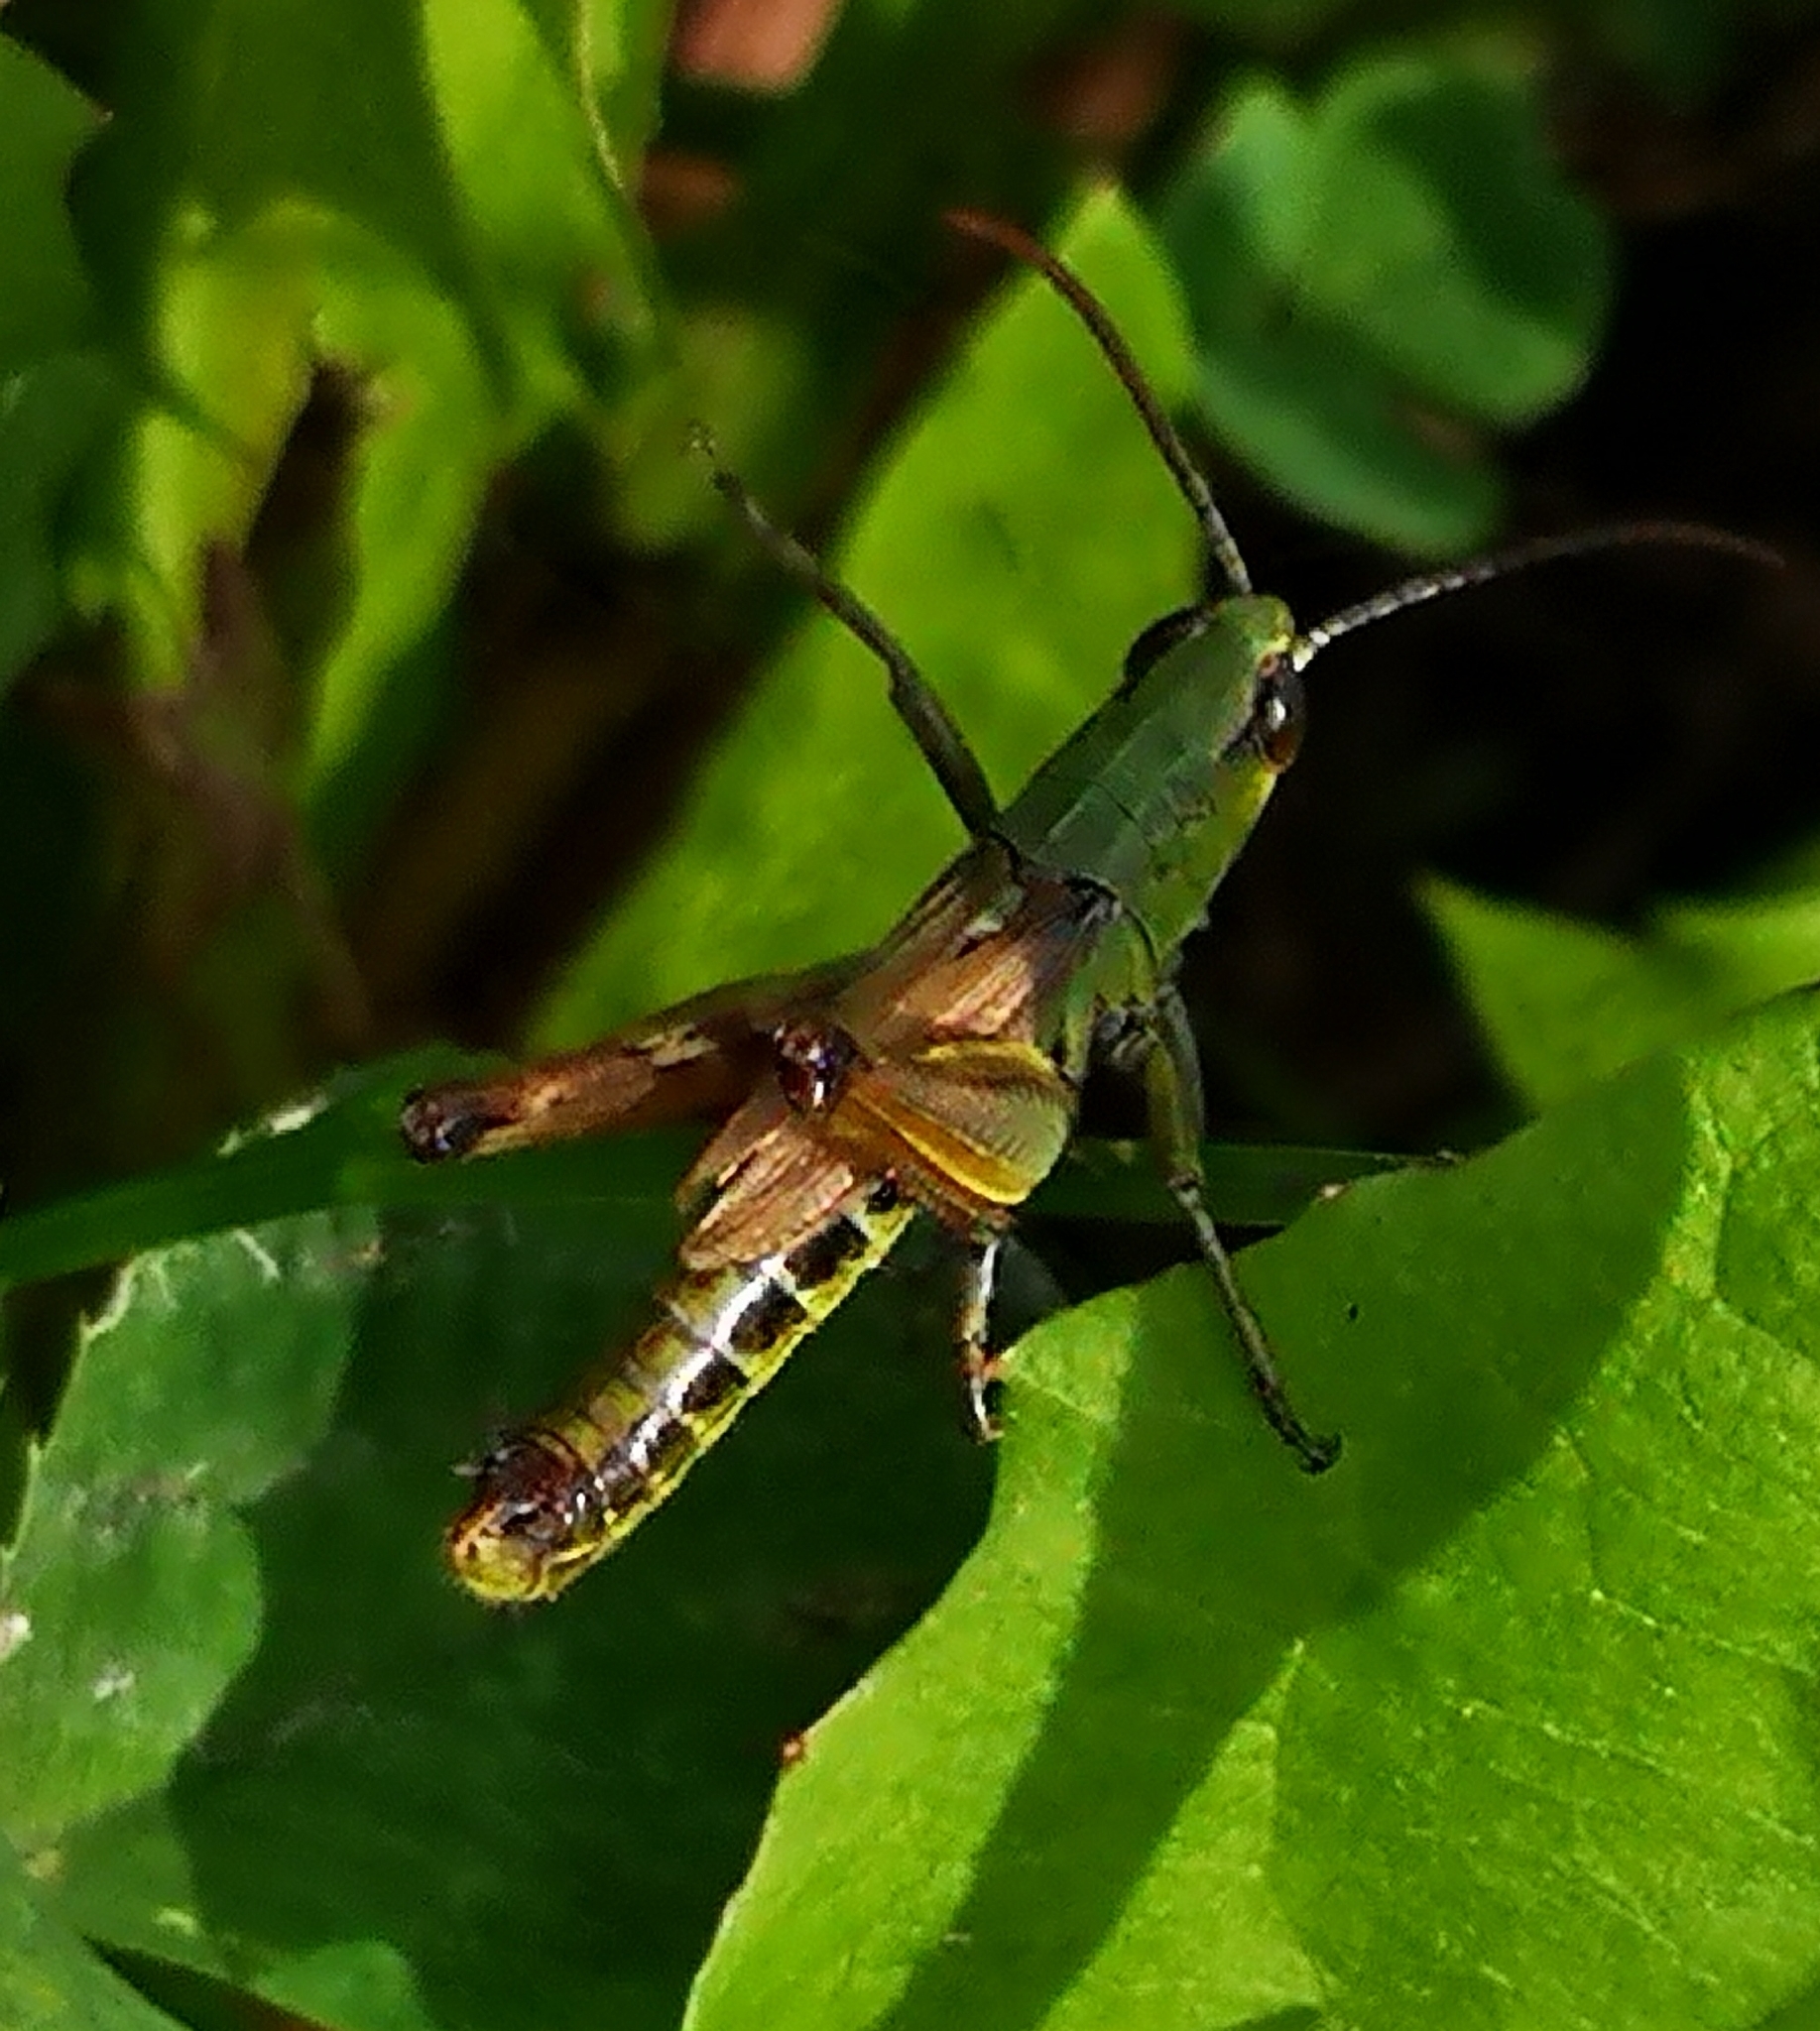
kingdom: Animalia
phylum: Arthropoda
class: Insecta
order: Orthoptera
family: Acrididae
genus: Pseudochorthippus
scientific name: Pseudochorthippus parallelus
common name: Meadow grasshopper
